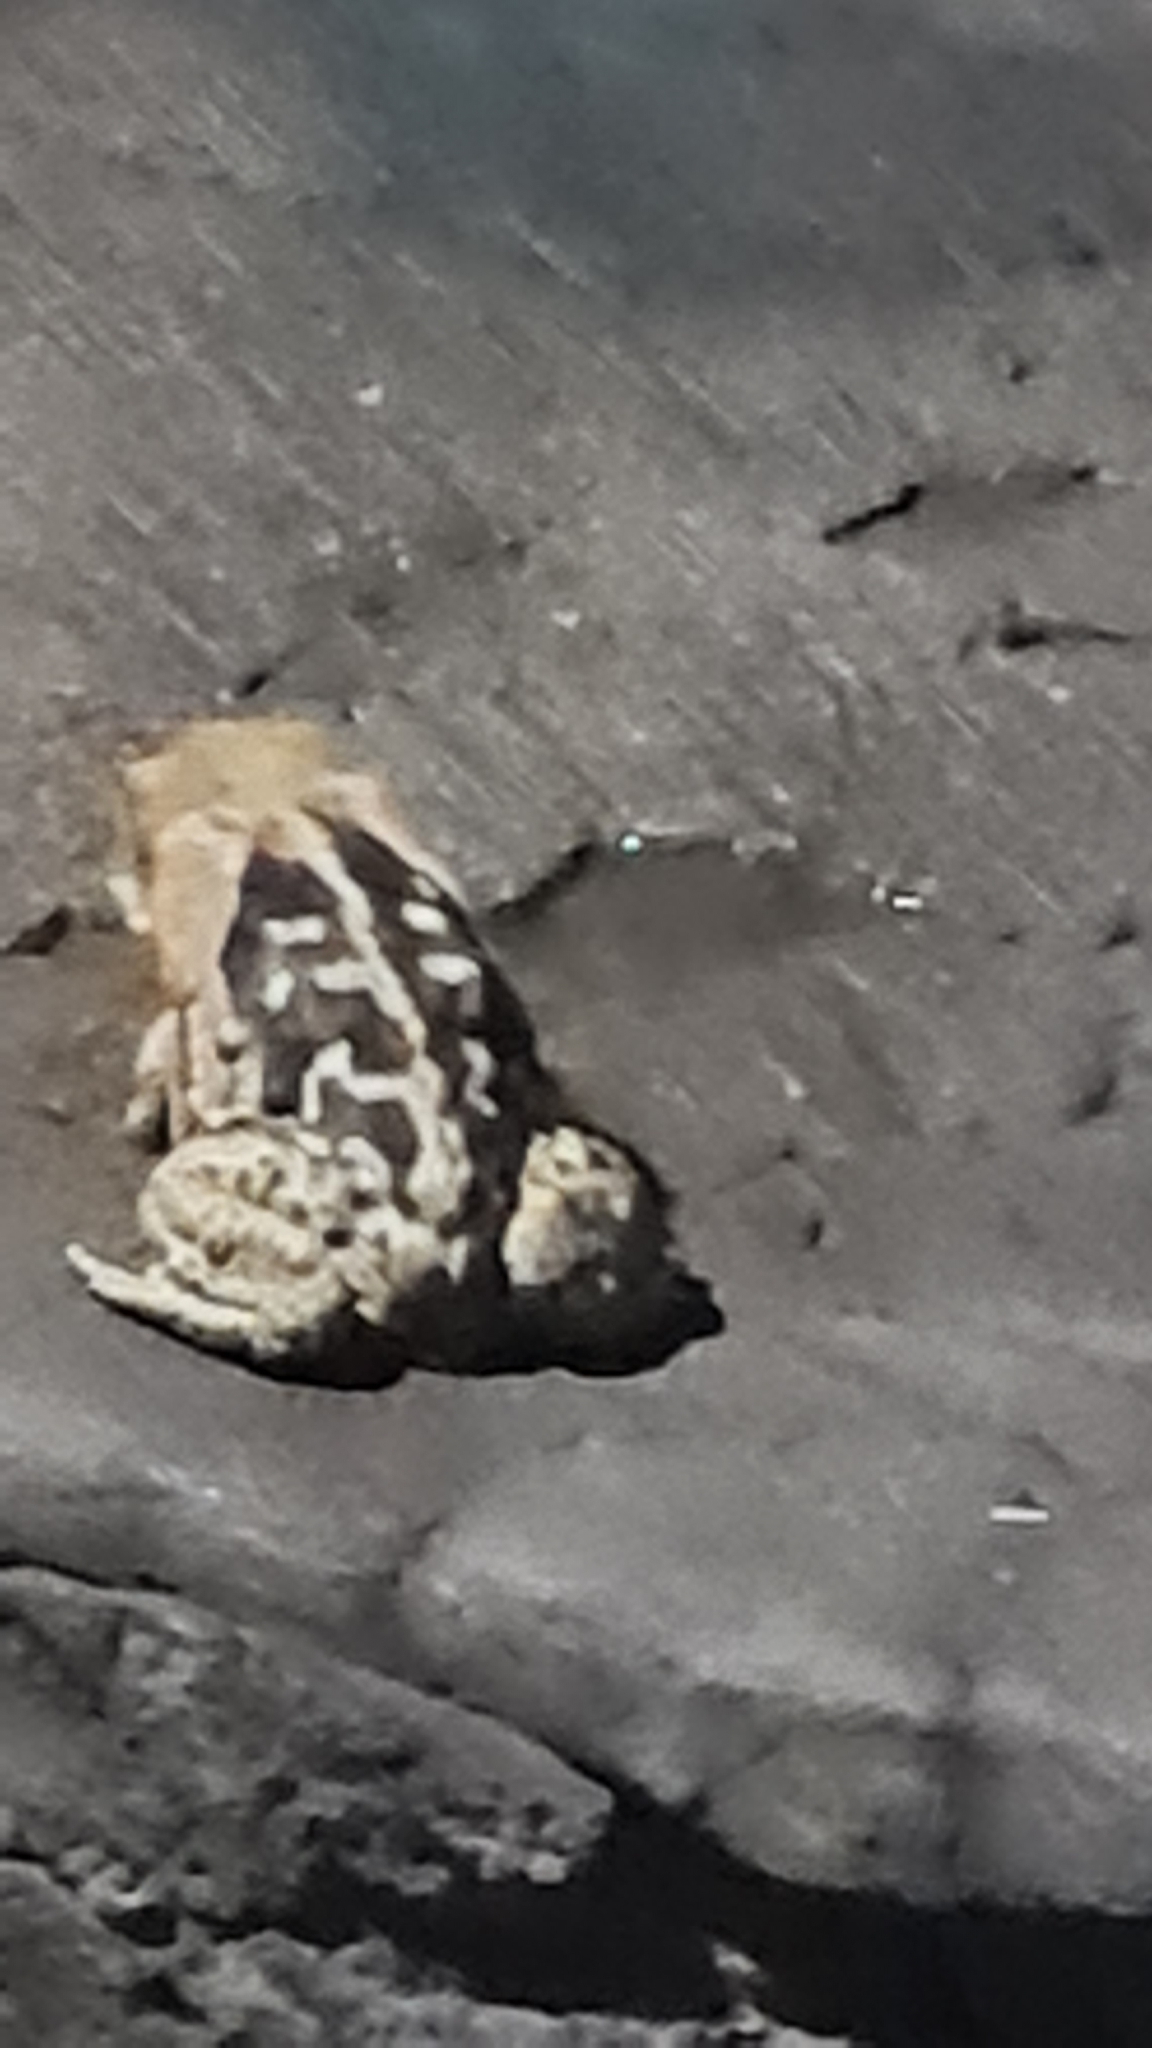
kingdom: Animalia
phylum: Chordata
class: Amphibia
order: Anura
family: Bufonidae
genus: Rhinella
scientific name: Rhinella diptycha
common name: Cope's toad
